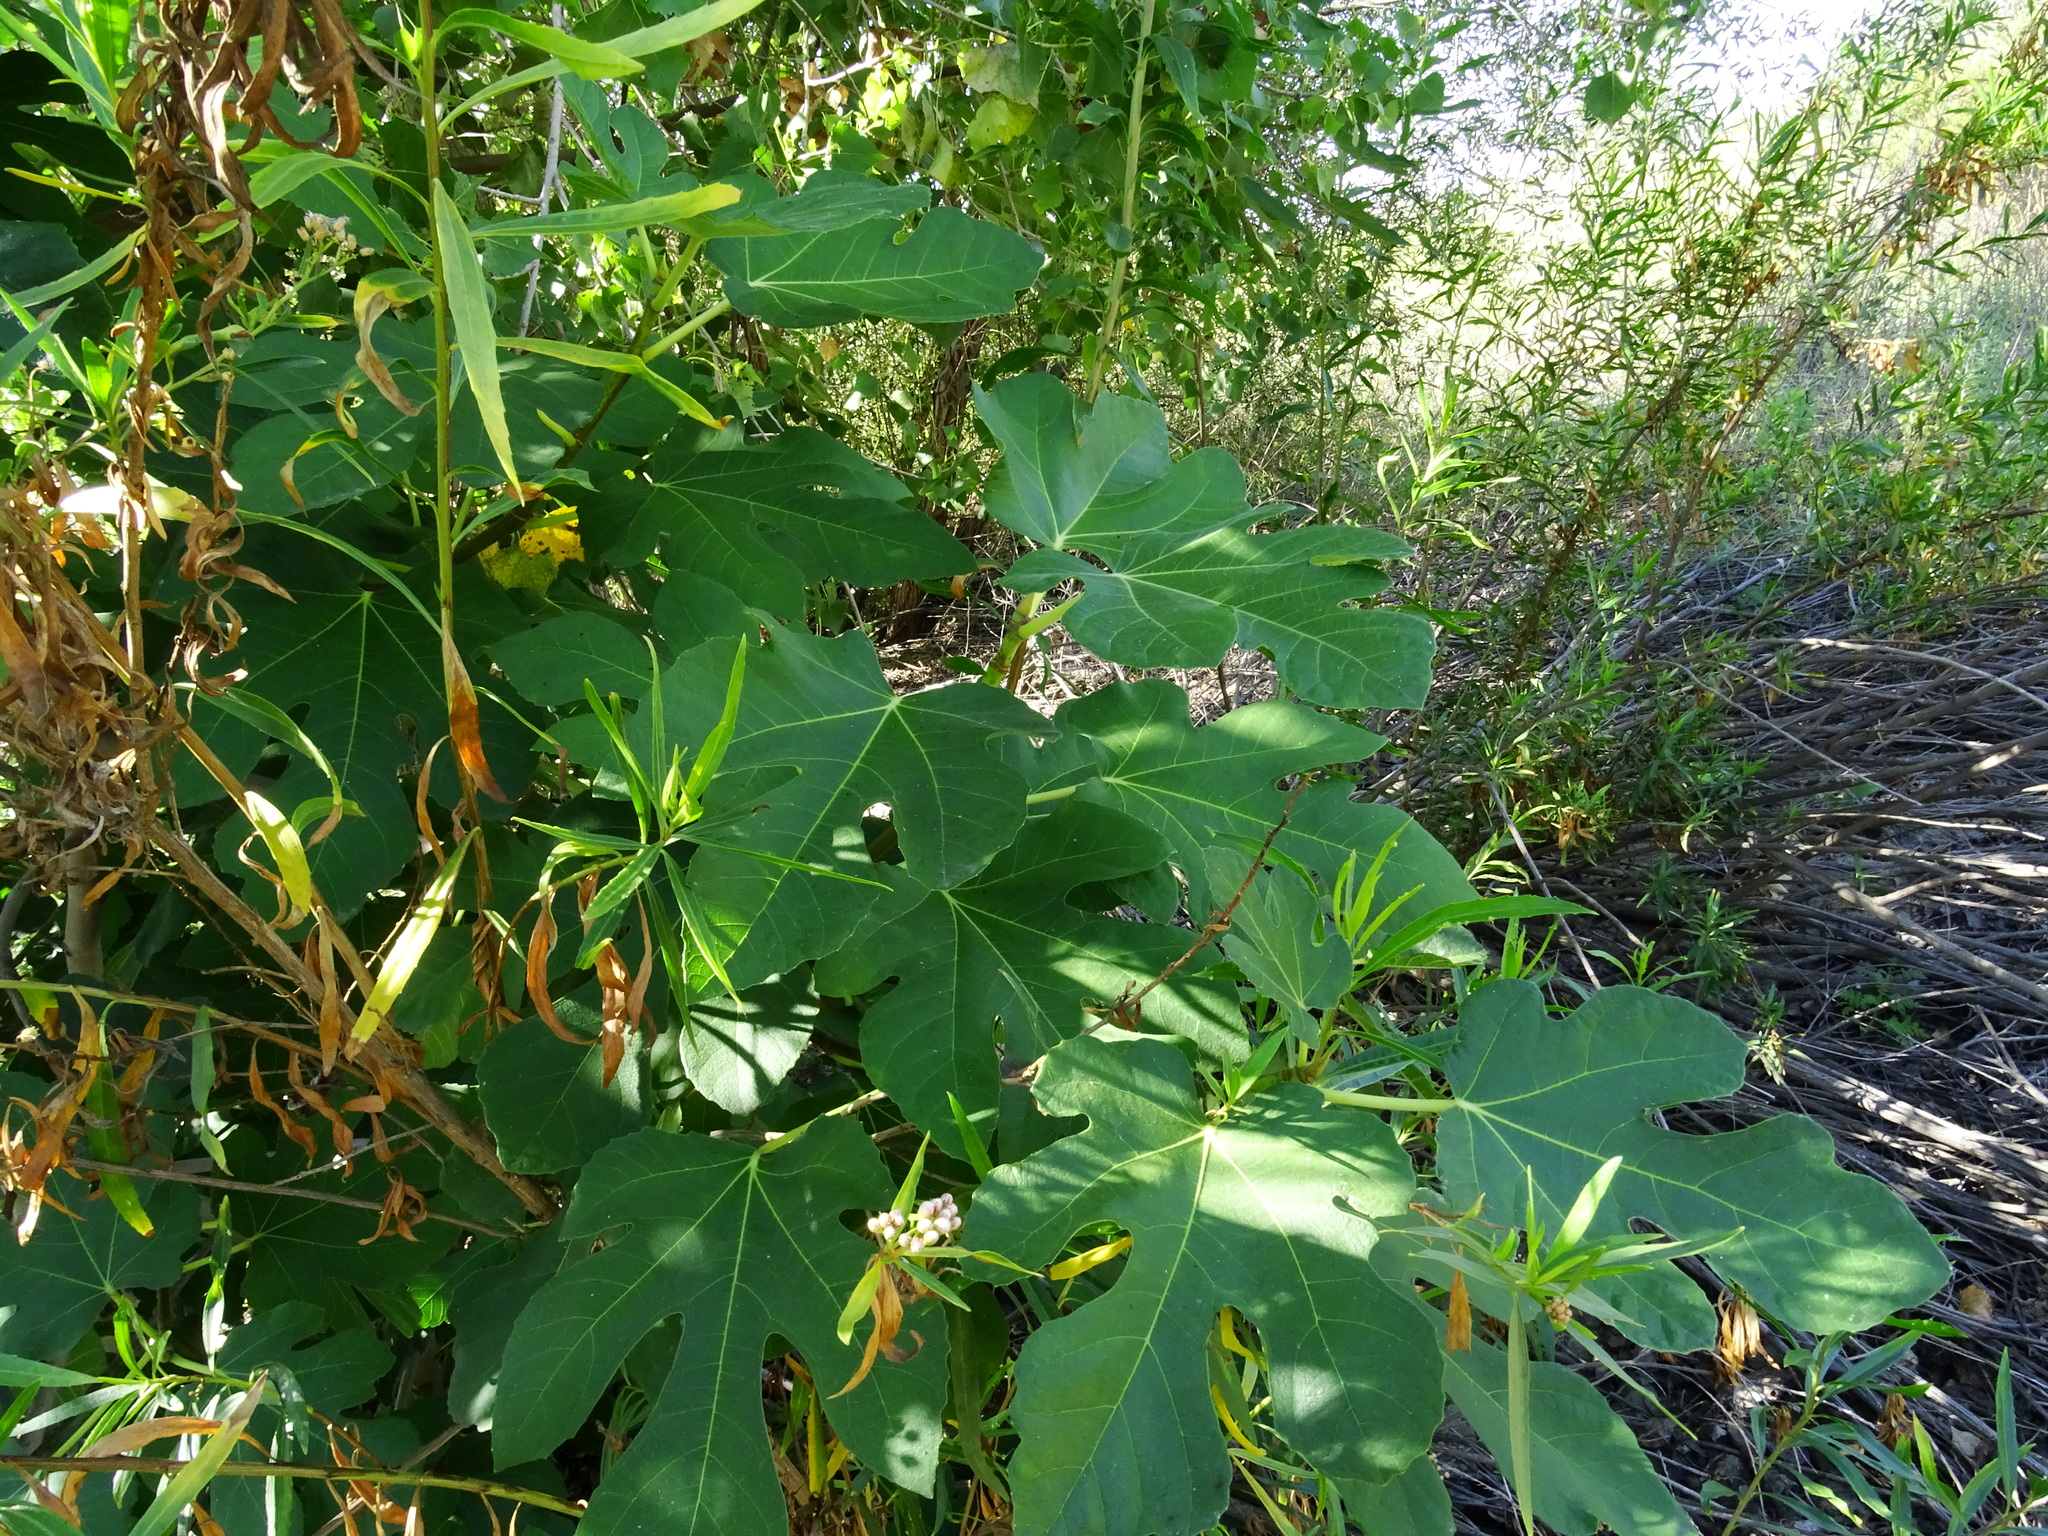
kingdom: Plantae
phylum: Tracheophyta
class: Magnoliopsida
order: Rosales
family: Moraceae
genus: Ficus
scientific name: Ficus carica
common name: Fig
